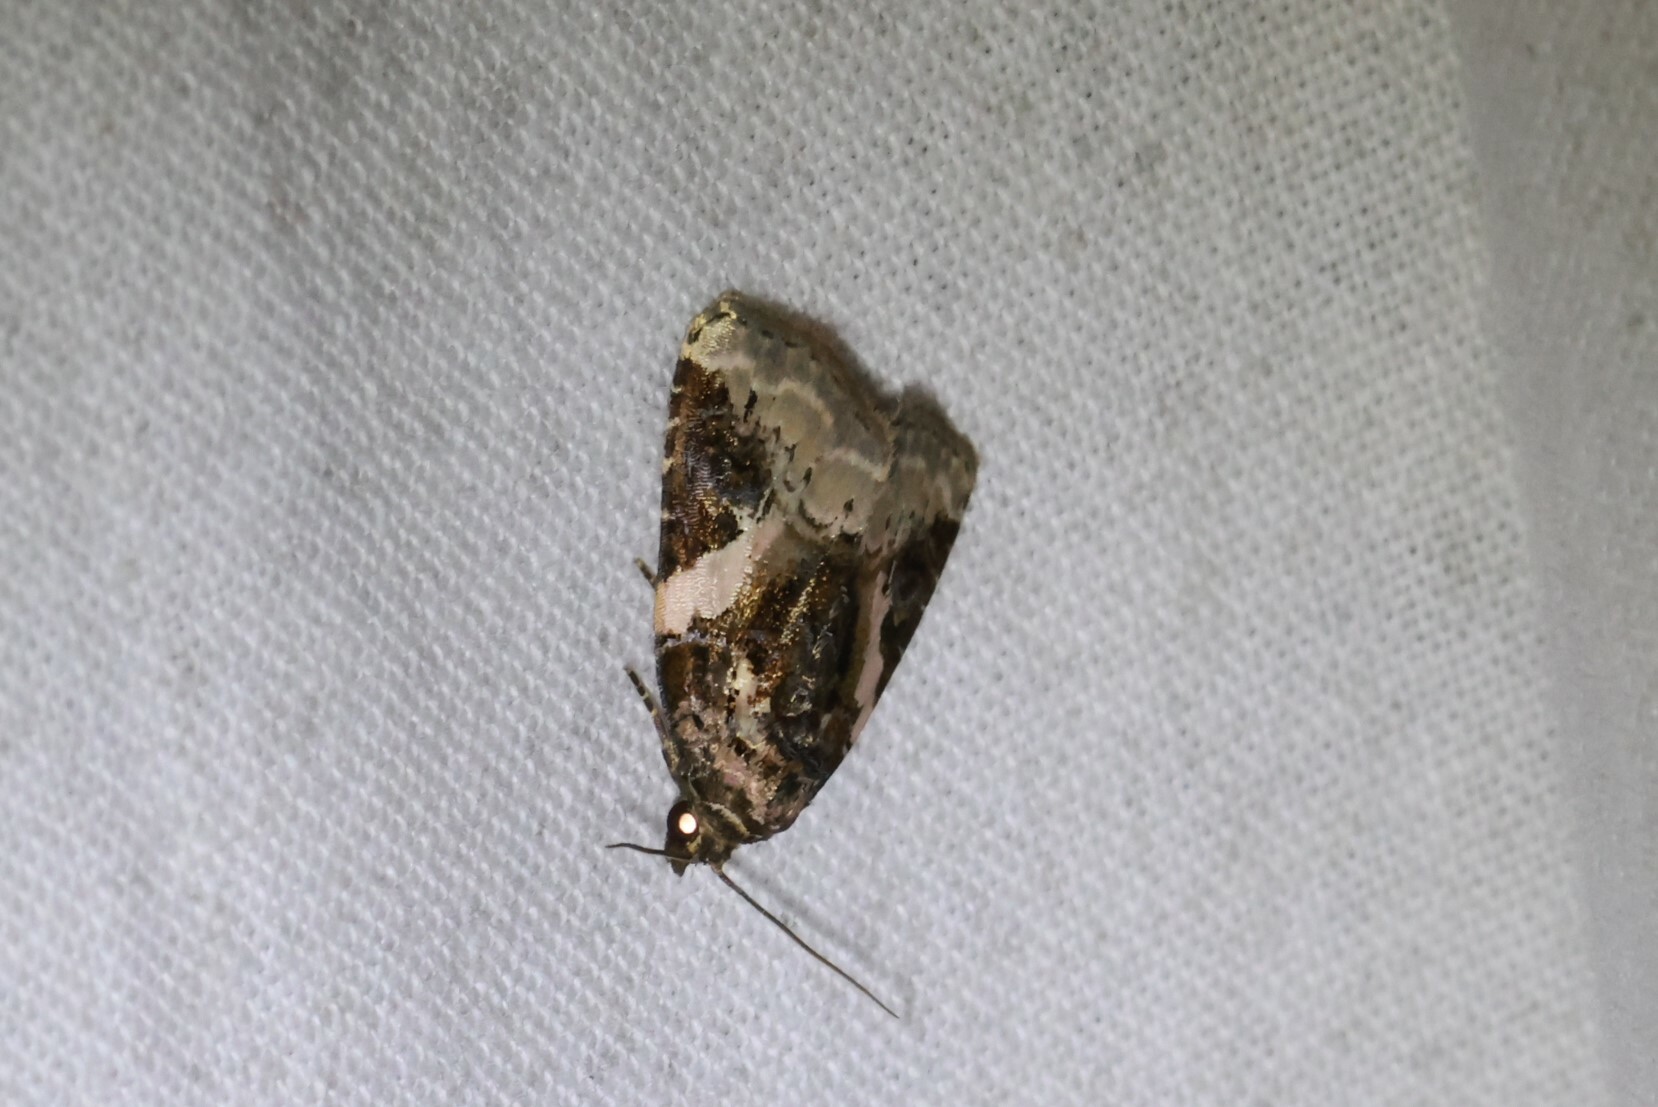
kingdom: Animalia
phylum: Arthropoda
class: Insecta
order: Lepidoptera
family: Noctuidae
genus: Pseudeustrotia
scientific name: Pseudeustrotia carneola
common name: Pink-barred lithacodia moth
